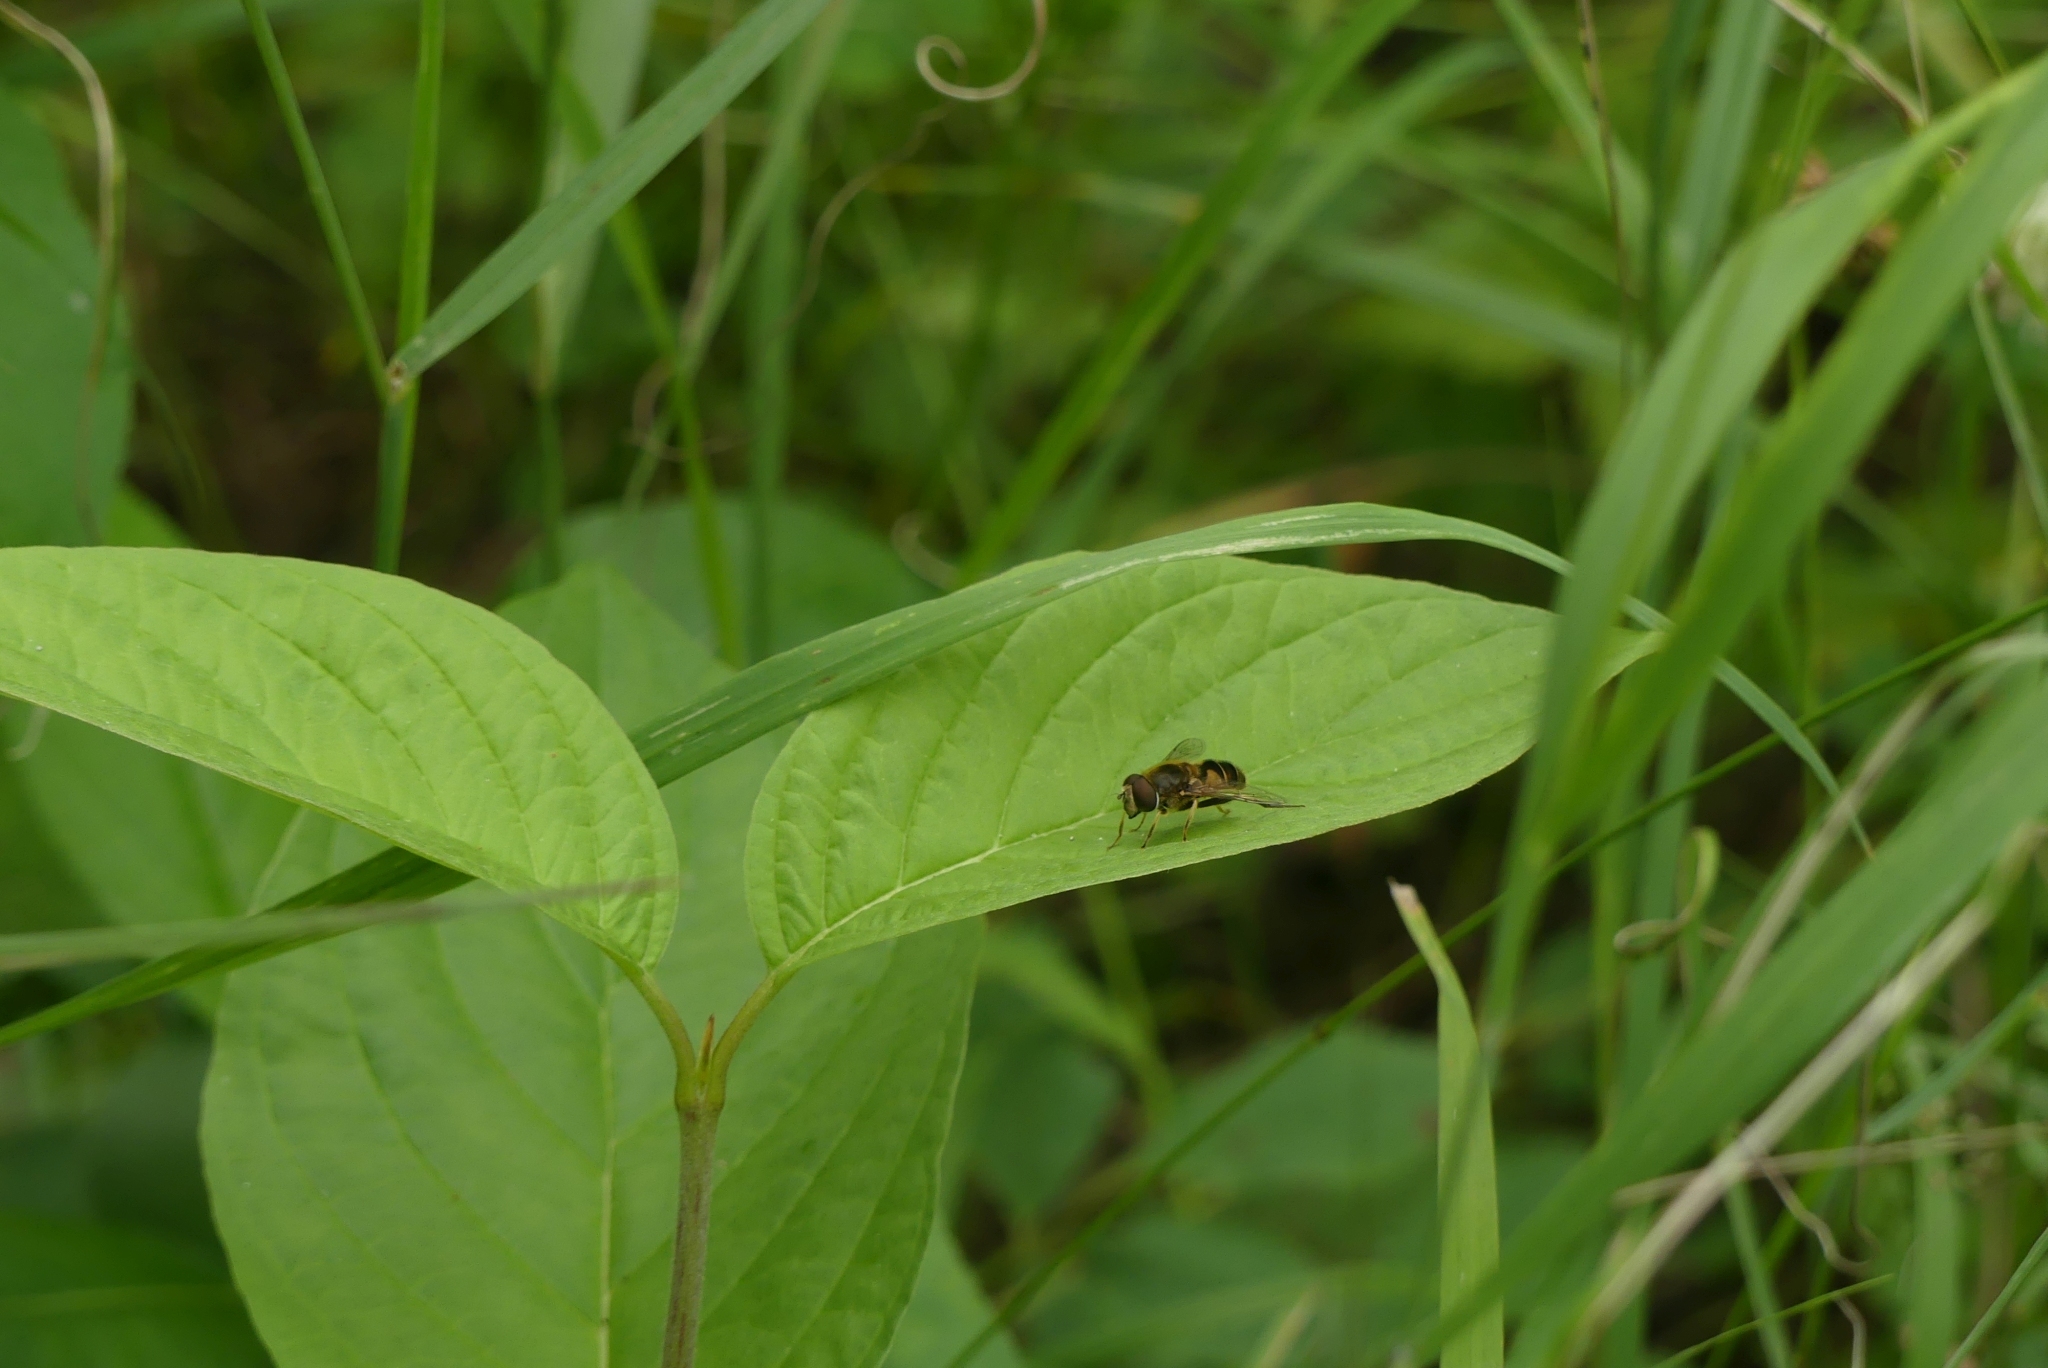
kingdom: Animalia
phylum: Arthropoda
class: Insecta
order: Diptera
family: Syrphidae
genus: Eristalis
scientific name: Eristalis nemorum
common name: Orange-spined drone fly
